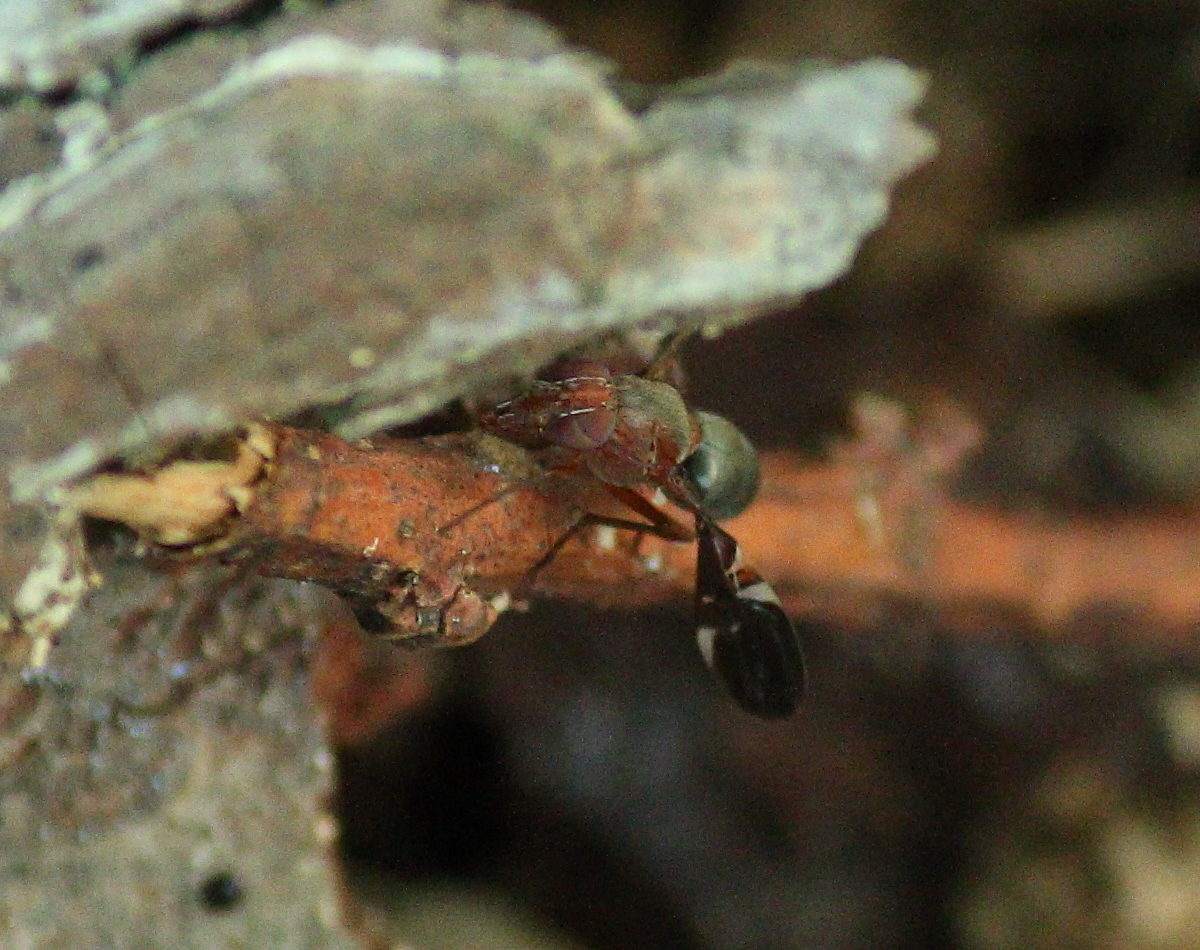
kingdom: Animalia
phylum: Arthropoda
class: Insecta
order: Diptera
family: Ulidiidae
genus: Delphinia
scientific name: Delphinia picta
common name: Common picture-winged fly
